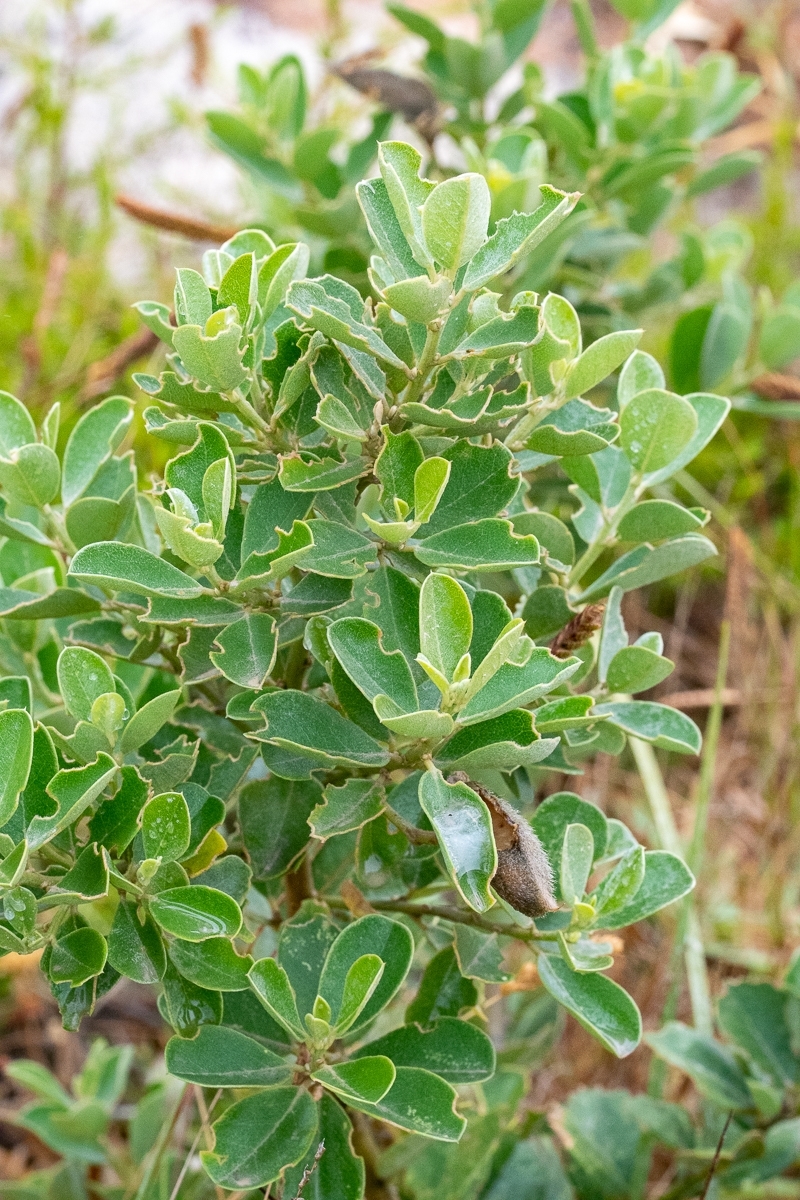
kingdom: Plantae
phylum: Tracheophyta
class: Magnoliopsida
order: Fabales
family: Fabaceae
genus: Podalyria
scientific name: Podalyria calyptrata
